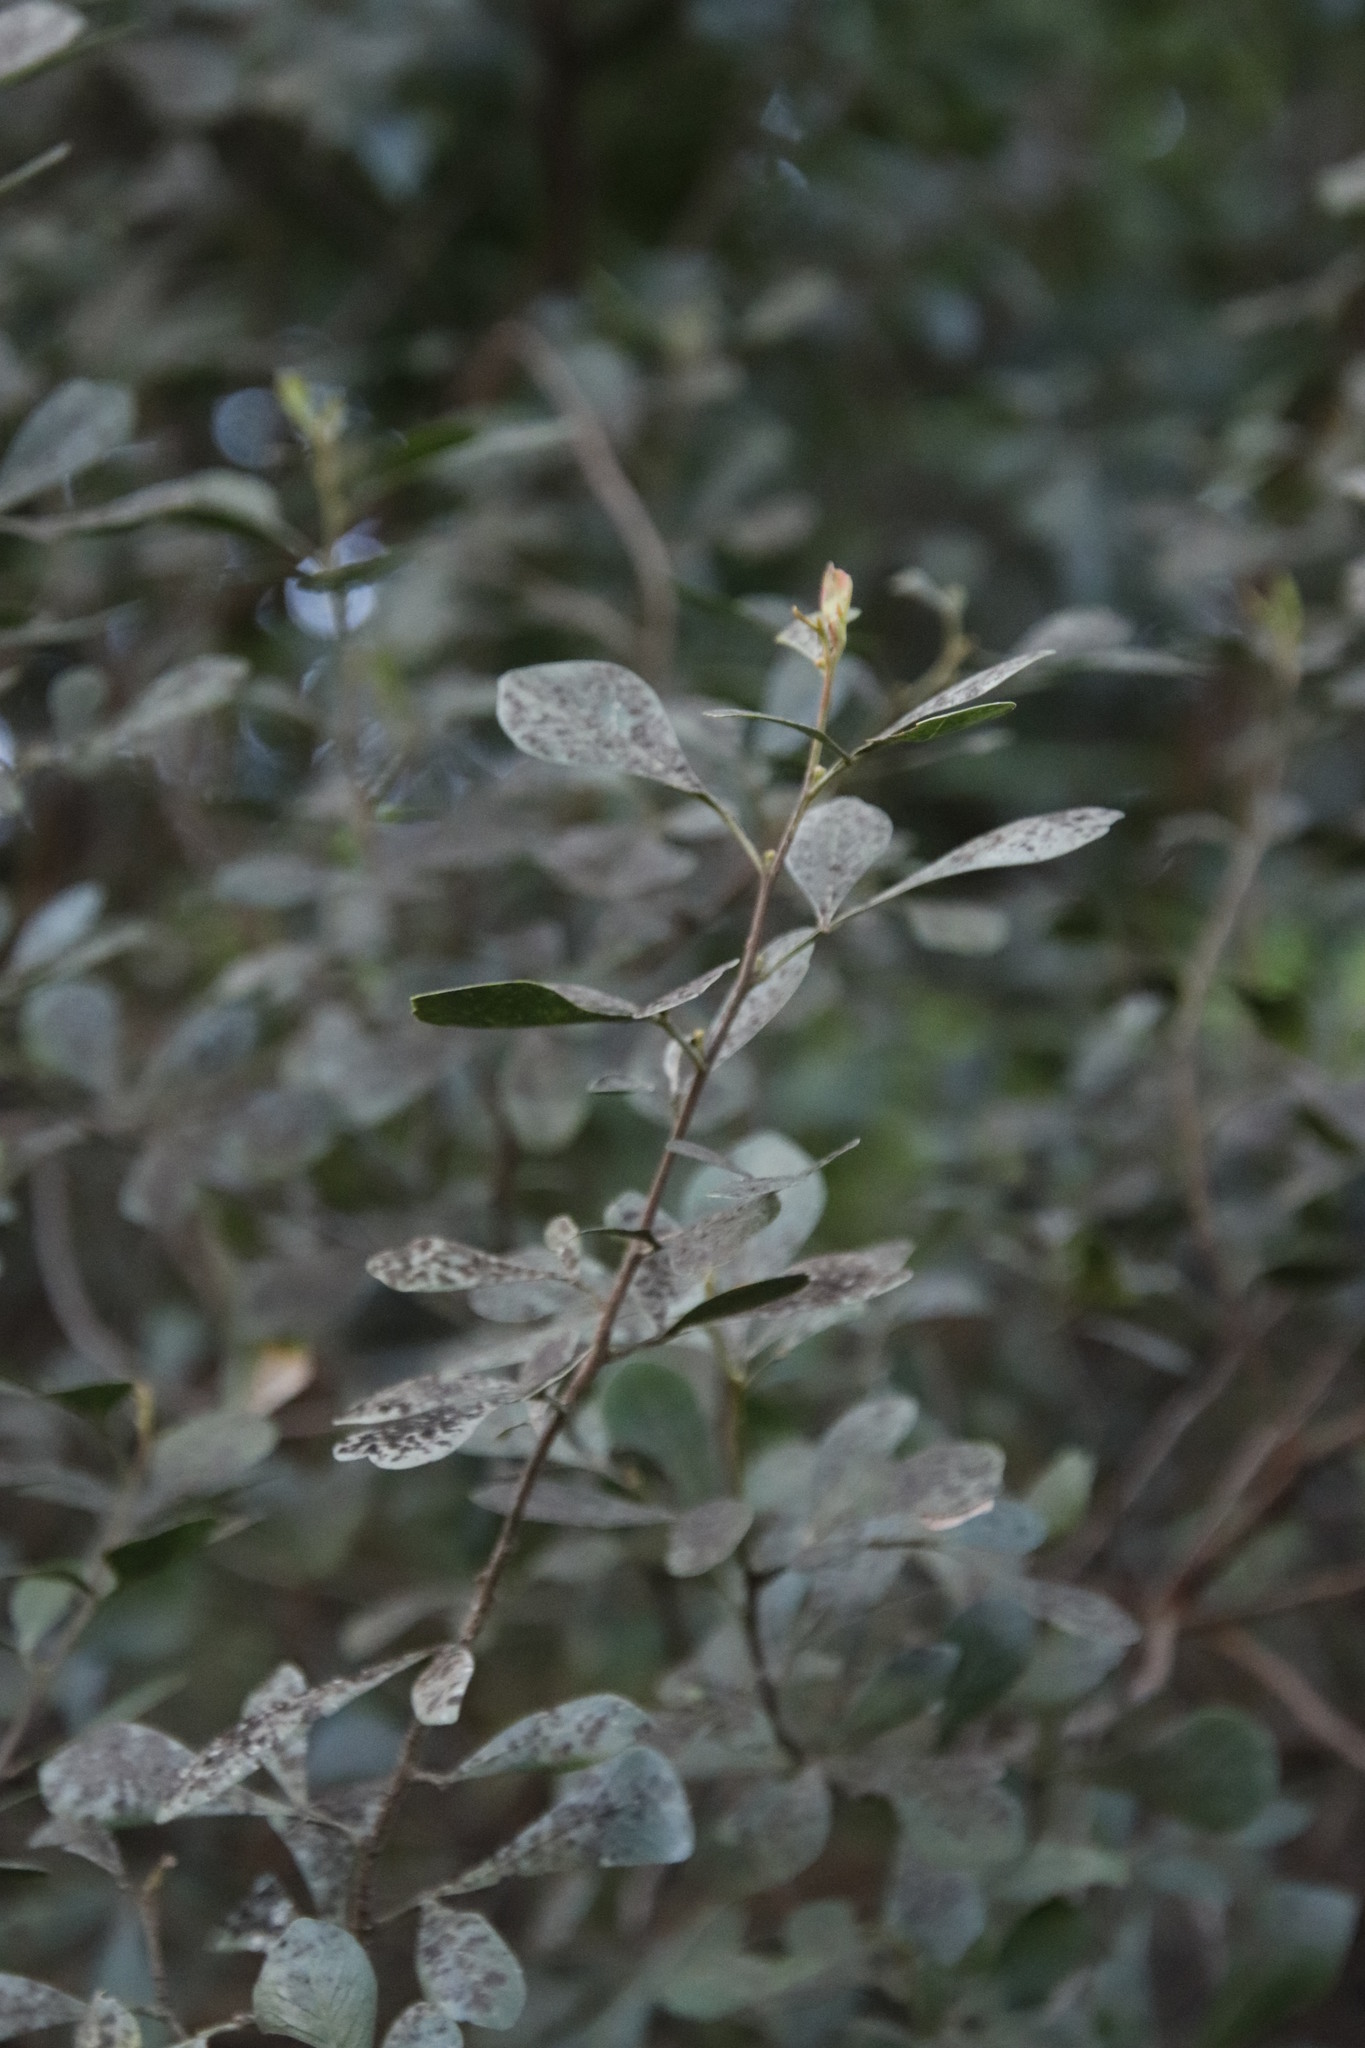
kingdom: Plantae
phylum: Tracheophyta
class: Magnoliopsida
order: Sapindales
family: Anacardiaceae
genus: Searsia
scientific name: Searsia lucida
